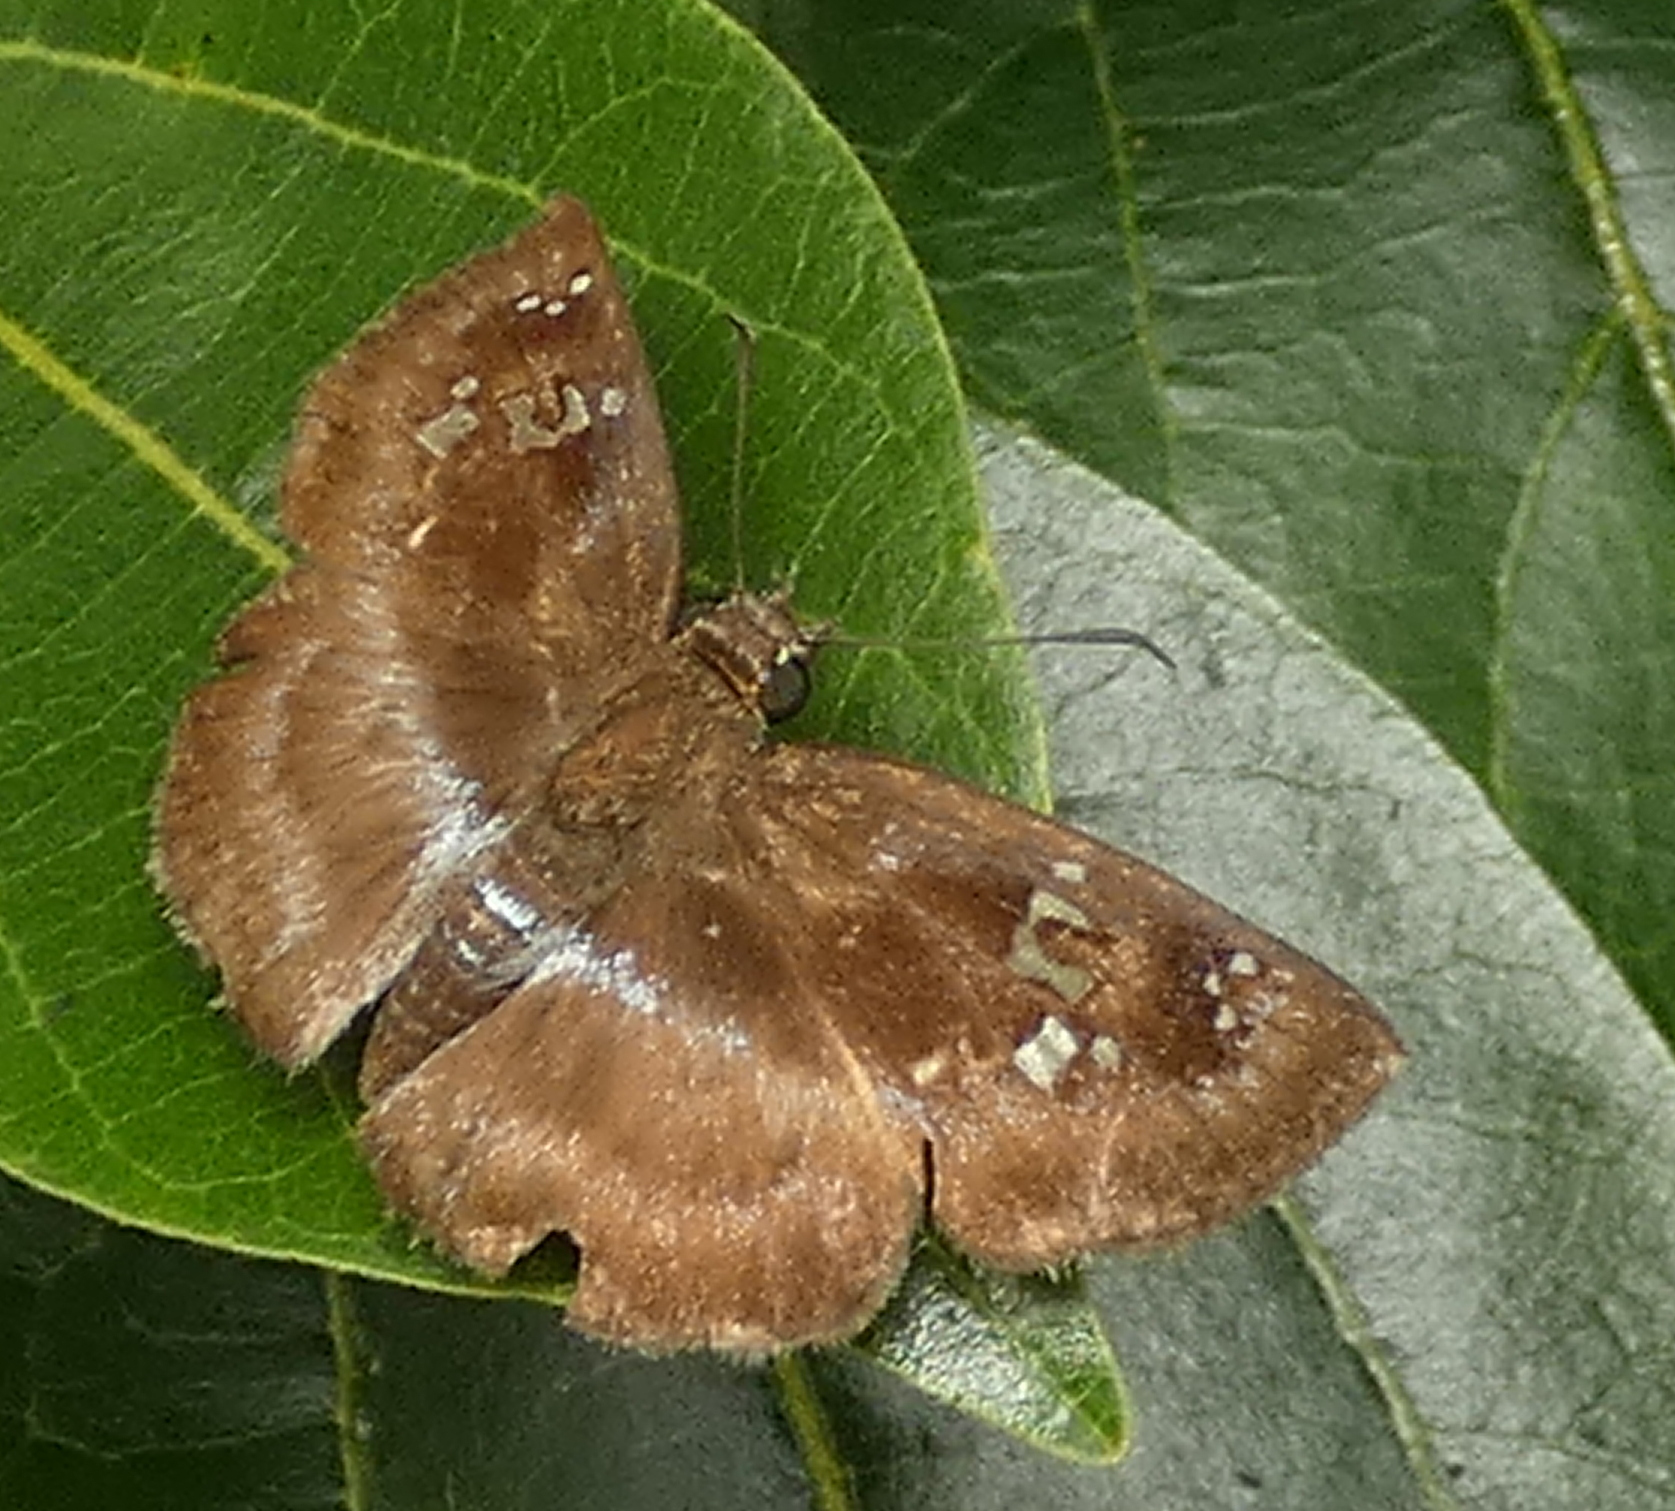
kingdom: Animalia
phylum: Arthropoda
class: Insecta
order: Lepidoptera
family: Hesperiidae
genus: Quadrus
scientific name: Quadrus cerialis
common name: Common blue-skipper
